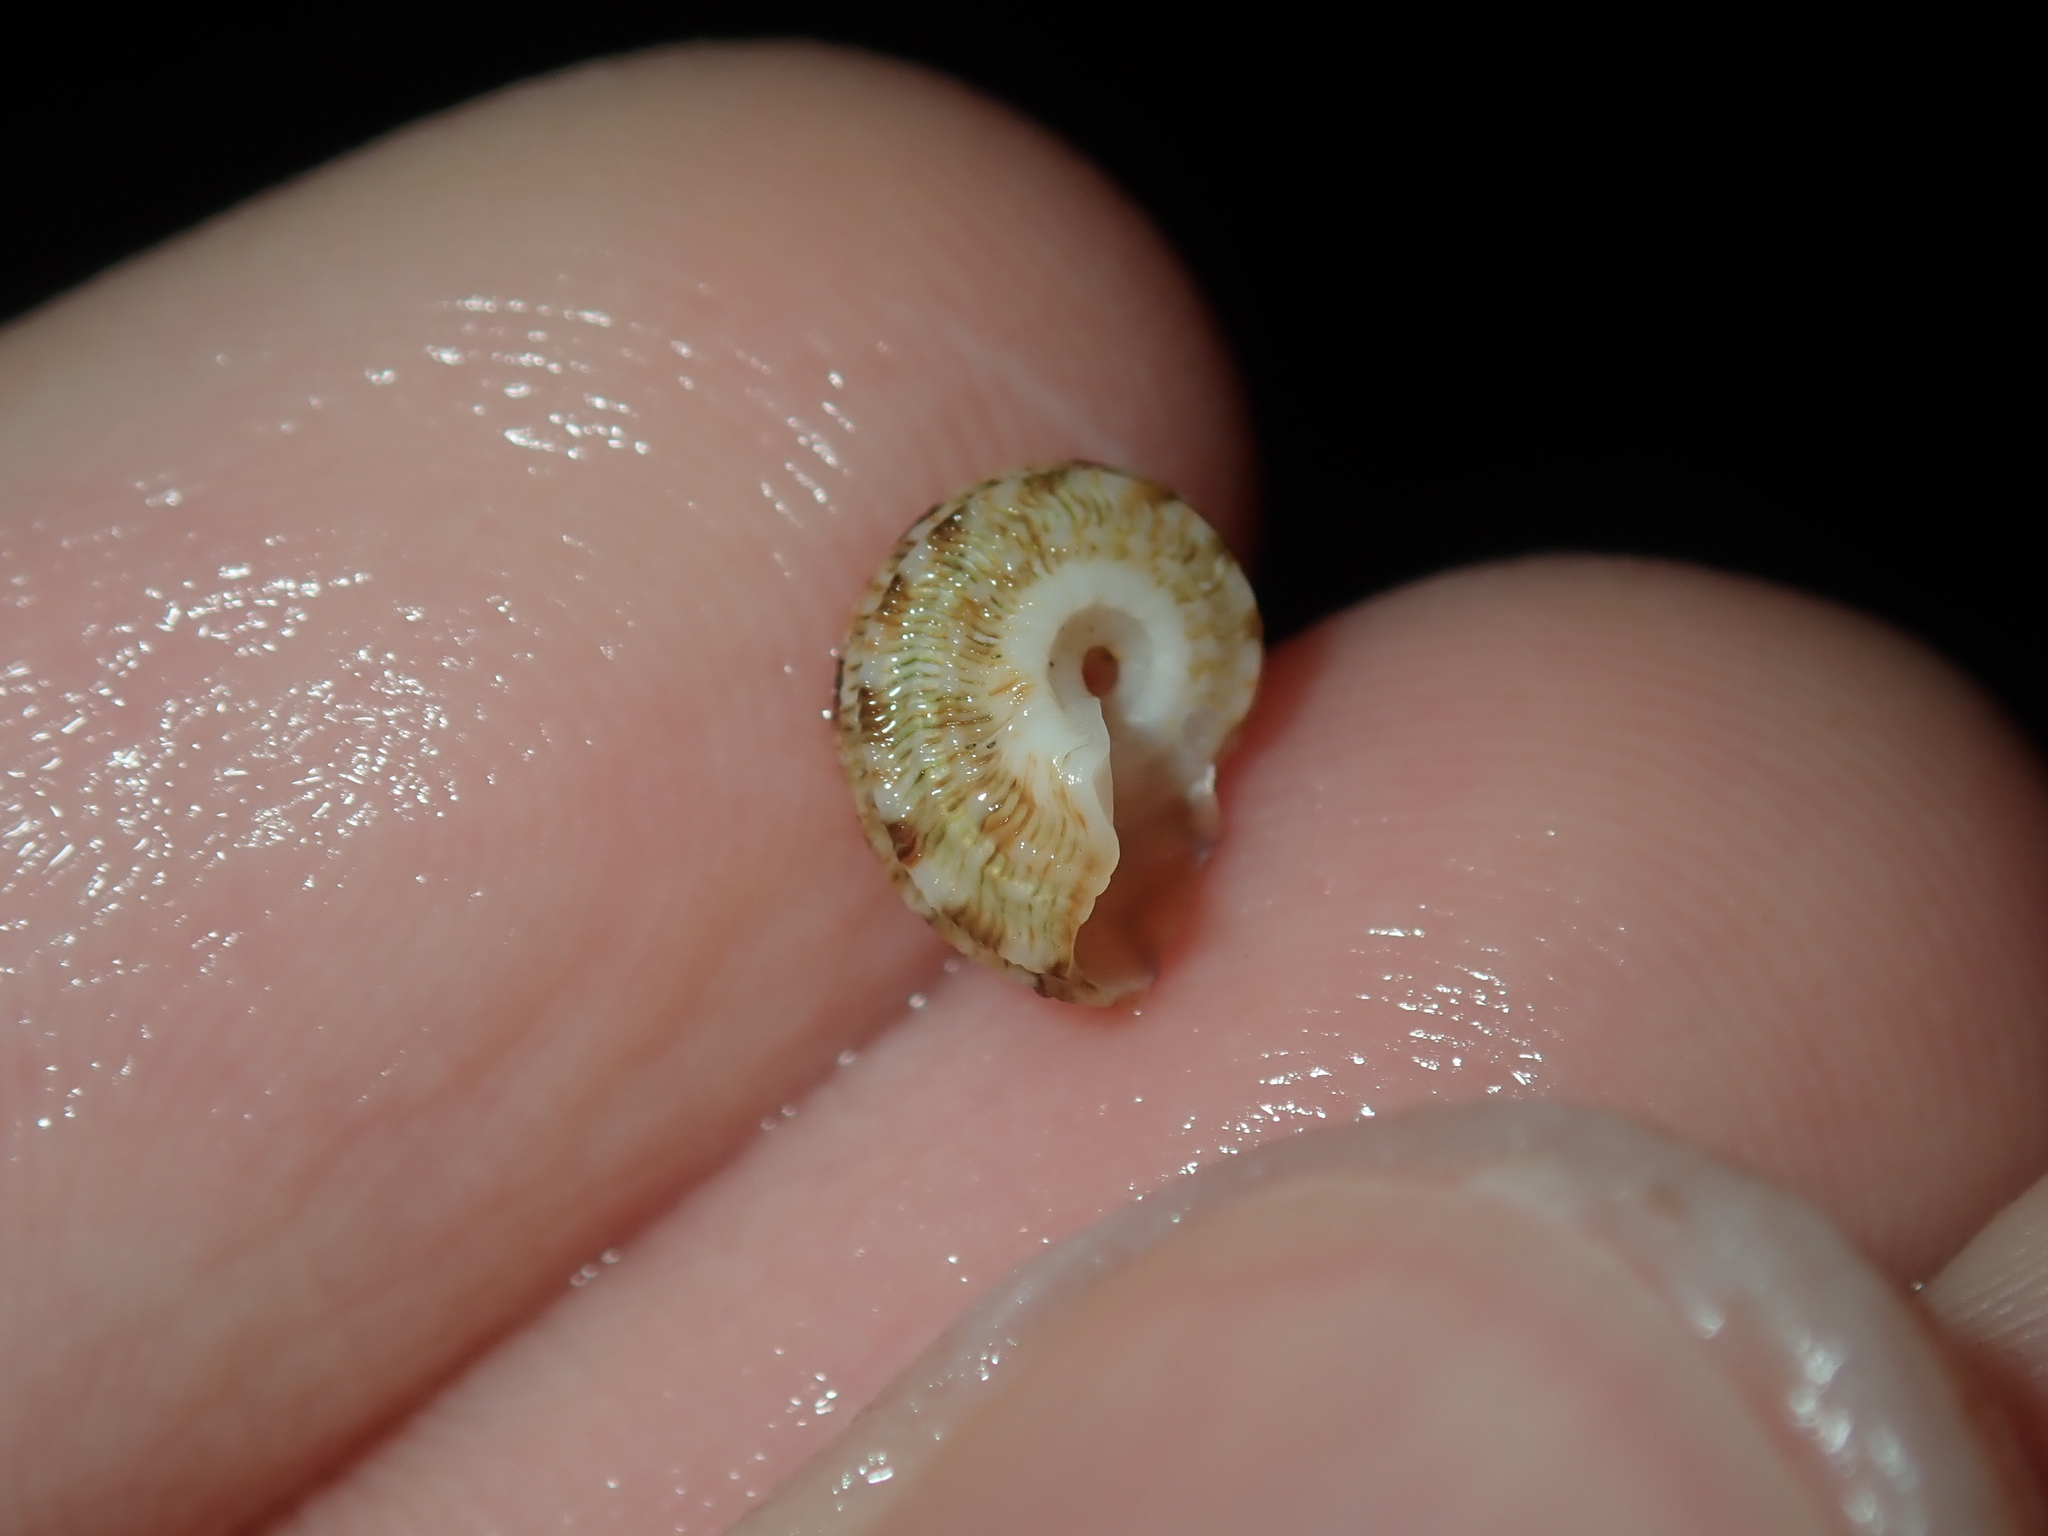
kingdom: Animalia
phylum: Mollusca
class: Gastropoda
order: Trochida
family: Turbinidae
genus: Lunella
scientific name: Lunella torquata
